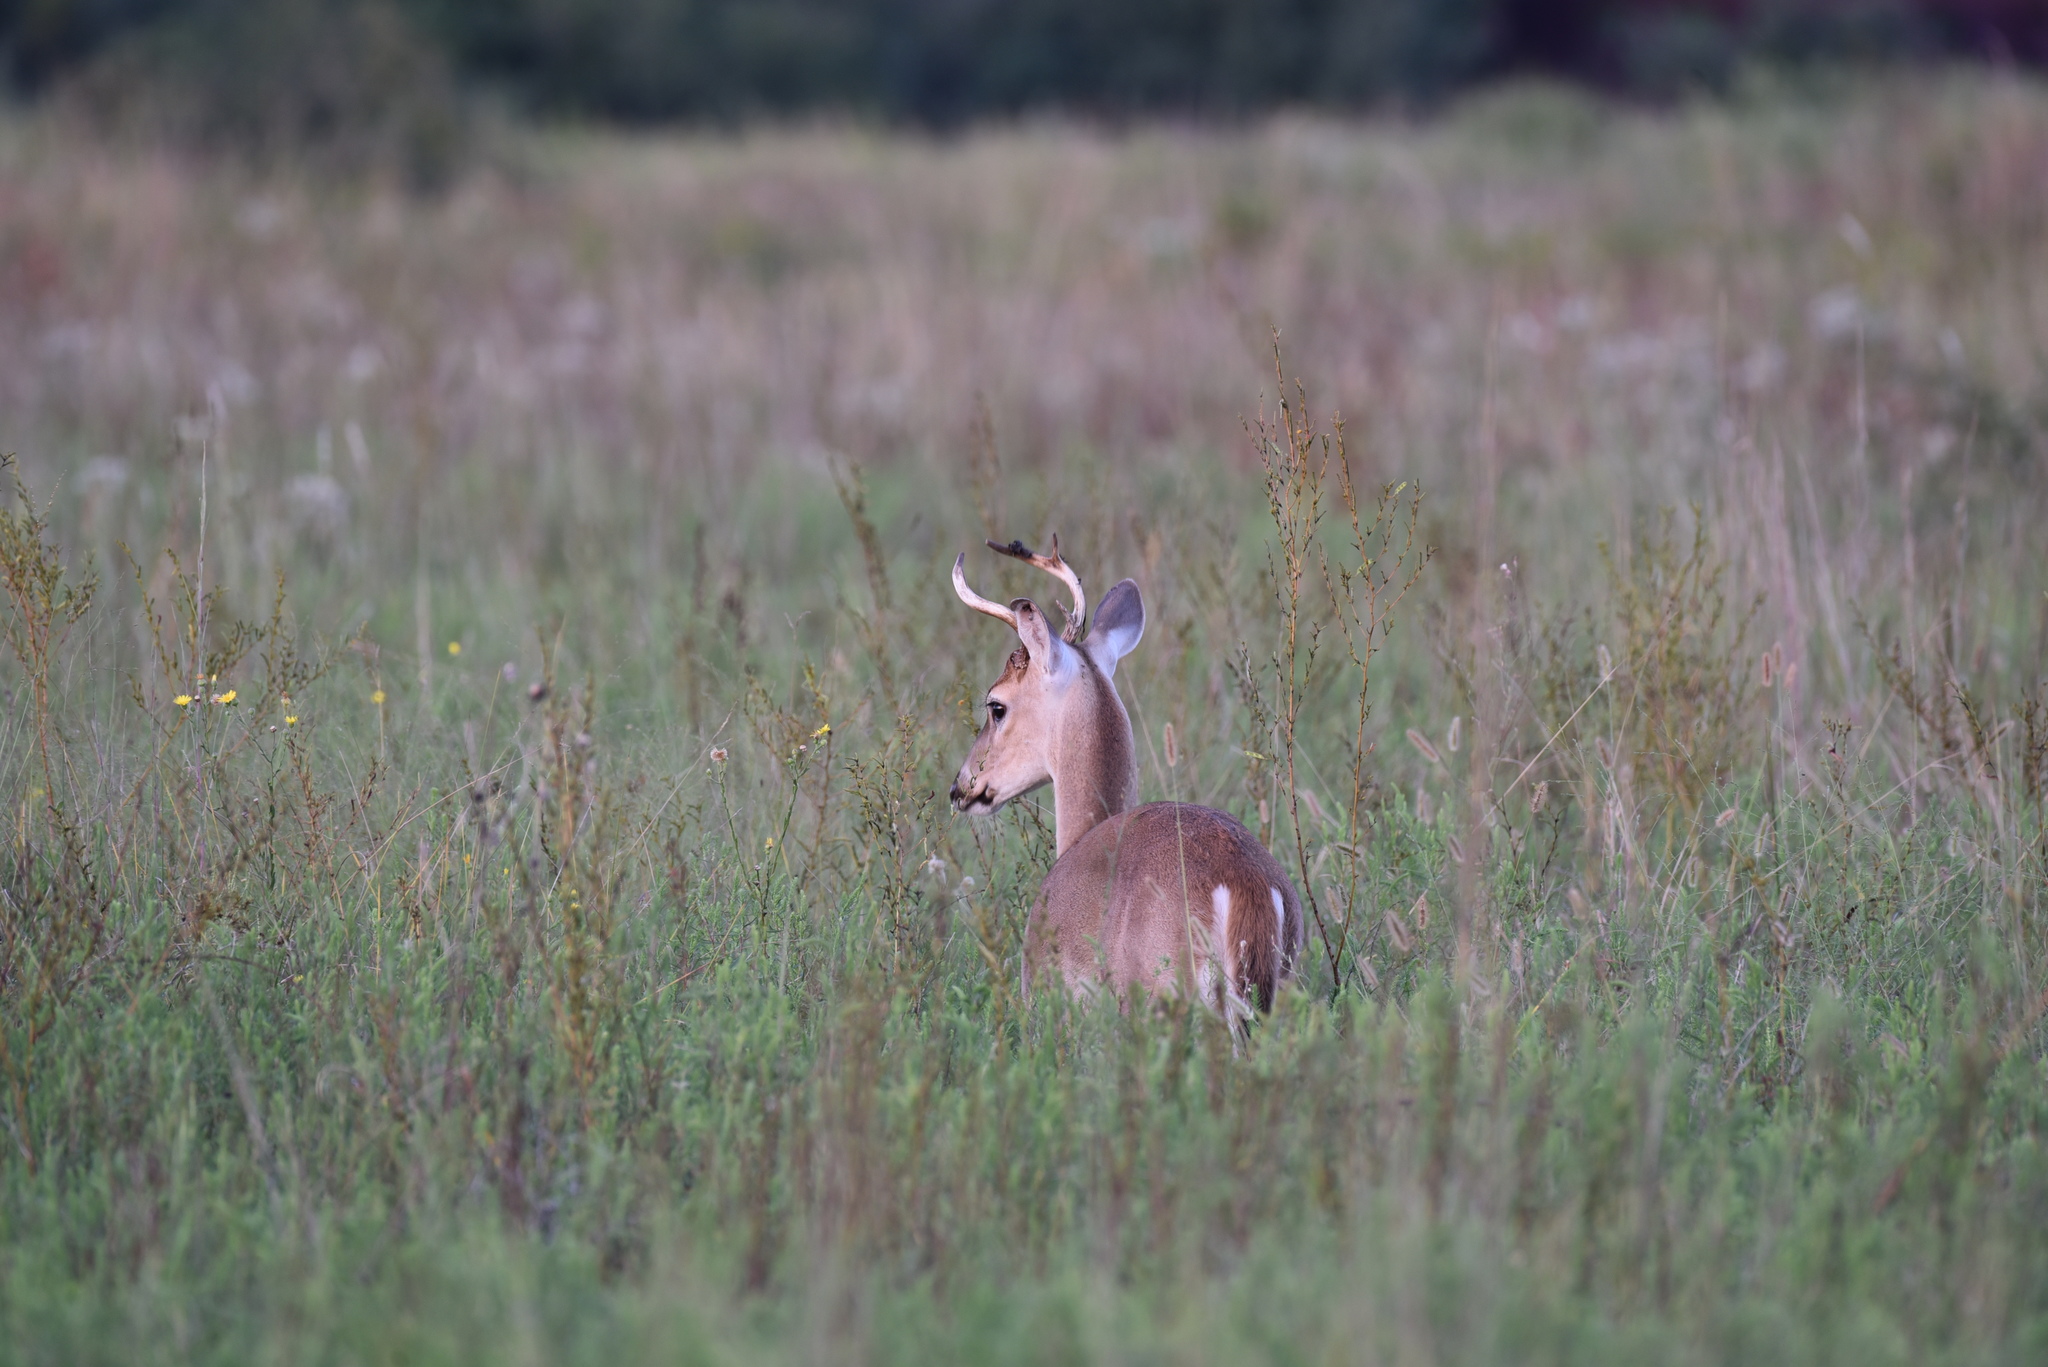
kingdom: Animalia
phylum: Chordata
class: Mammalia
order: Artiodactyla
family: Cervidae
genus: Odocoileus
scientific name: Odocoileus virginianus
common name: White-tailed deer
